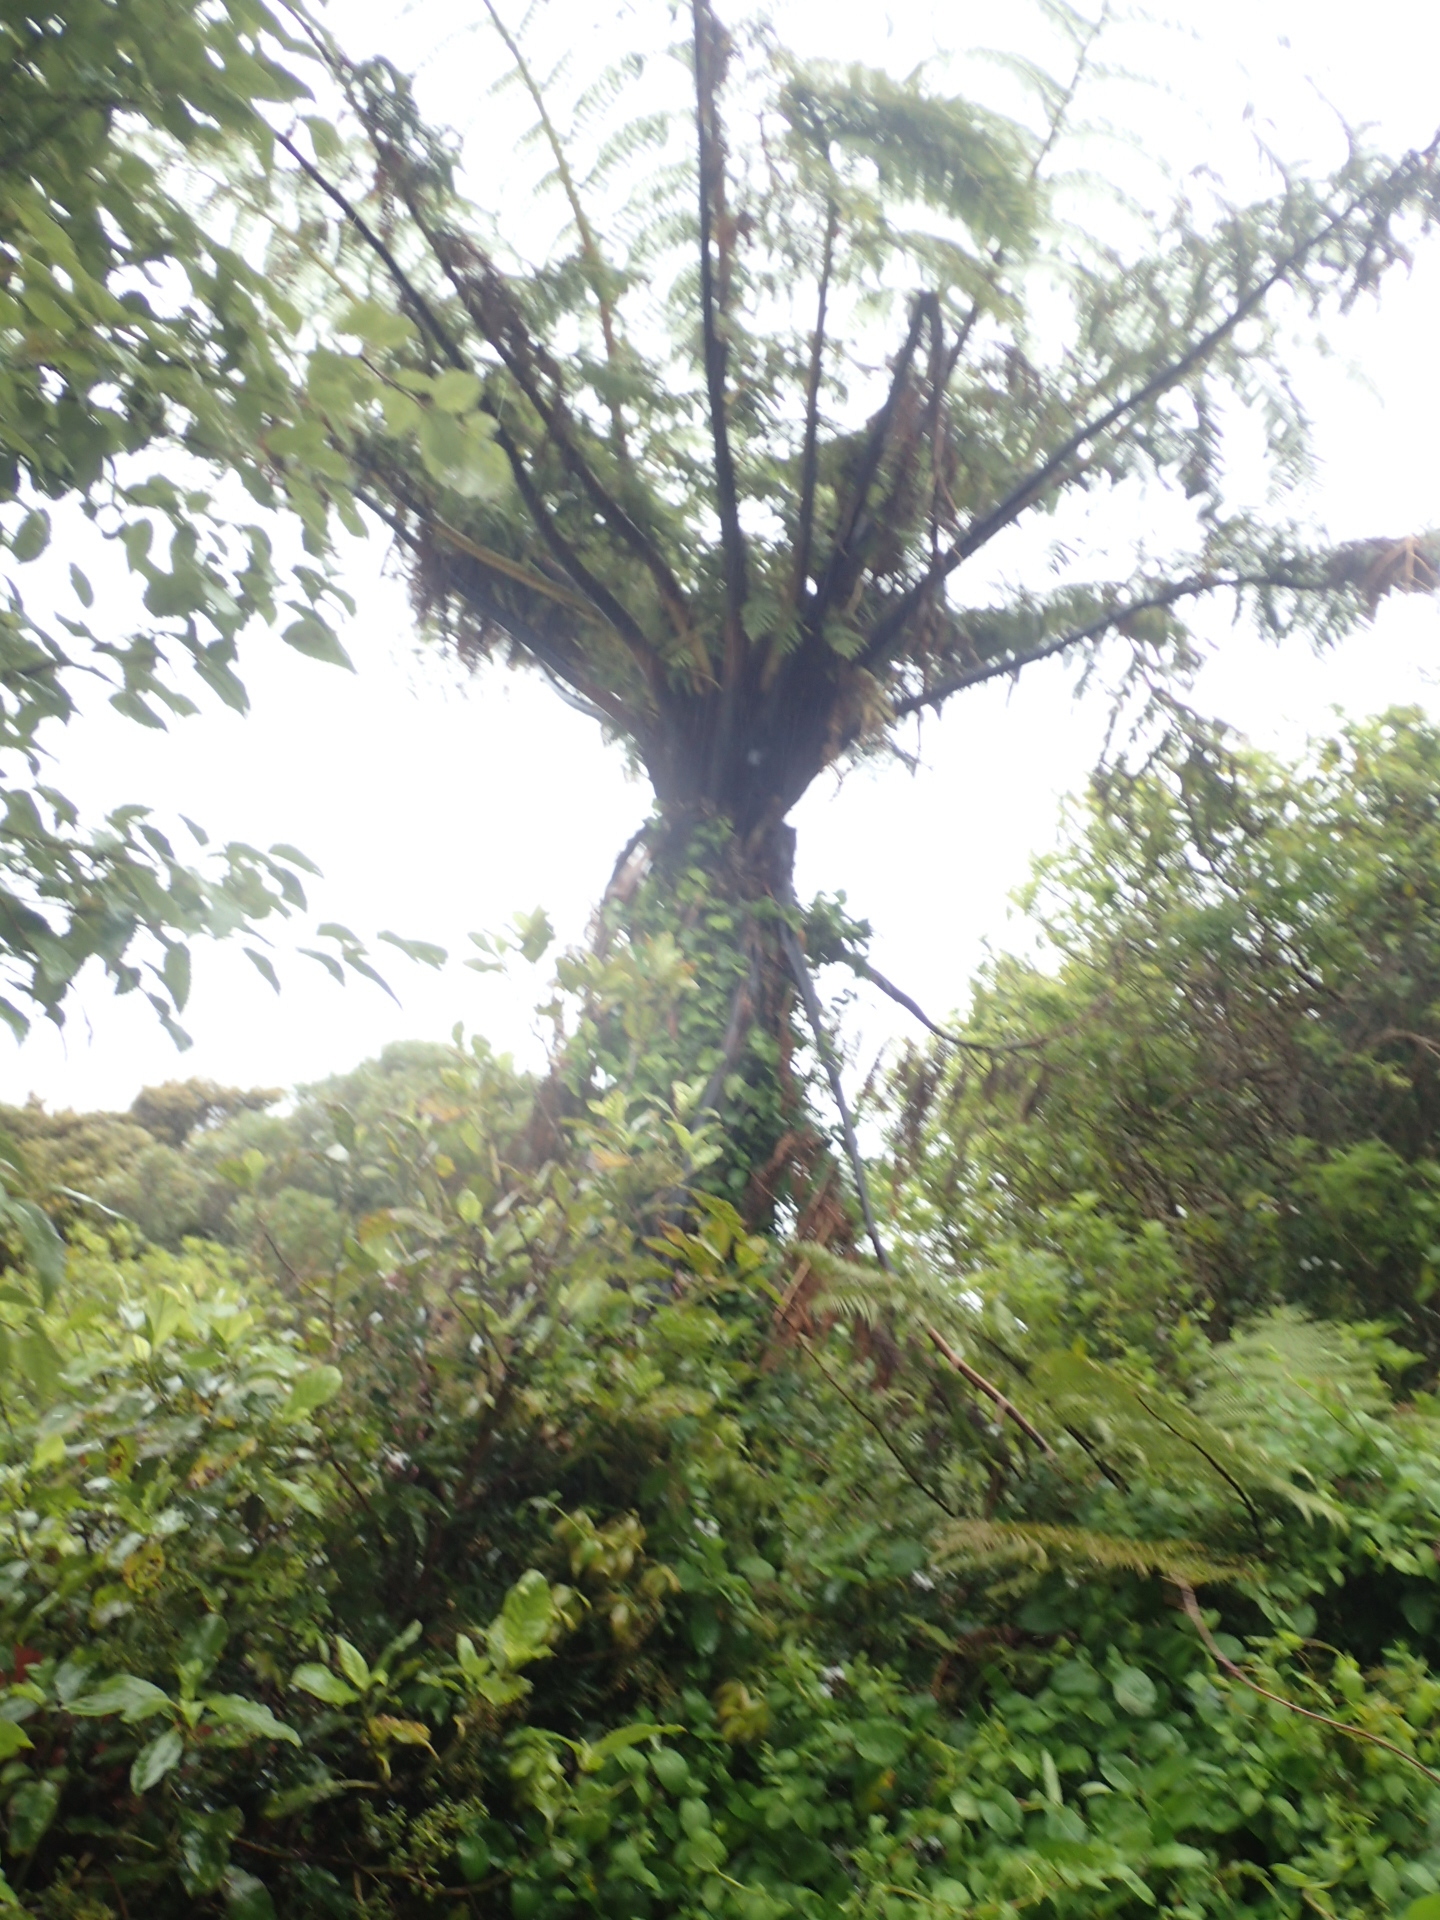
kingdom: Plantae
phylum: Tracheophyta
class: Polypodiopsida
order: Cyatheales
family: Cyatheaceae
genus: Sphaeropteris
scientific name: Sphaeropteris medullaris
